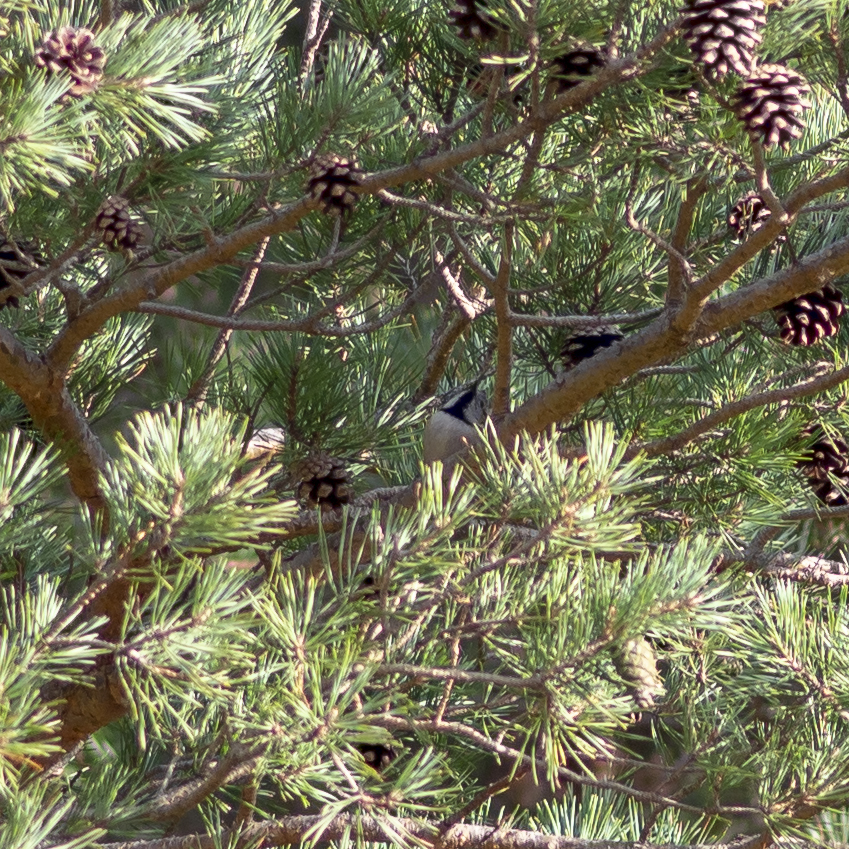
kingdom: Animalia
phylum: Chordata
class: Aves
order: Passeriformes
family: Paridae
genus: Lophophanes
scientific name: Lophophanes cristatus
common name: European crested tit
